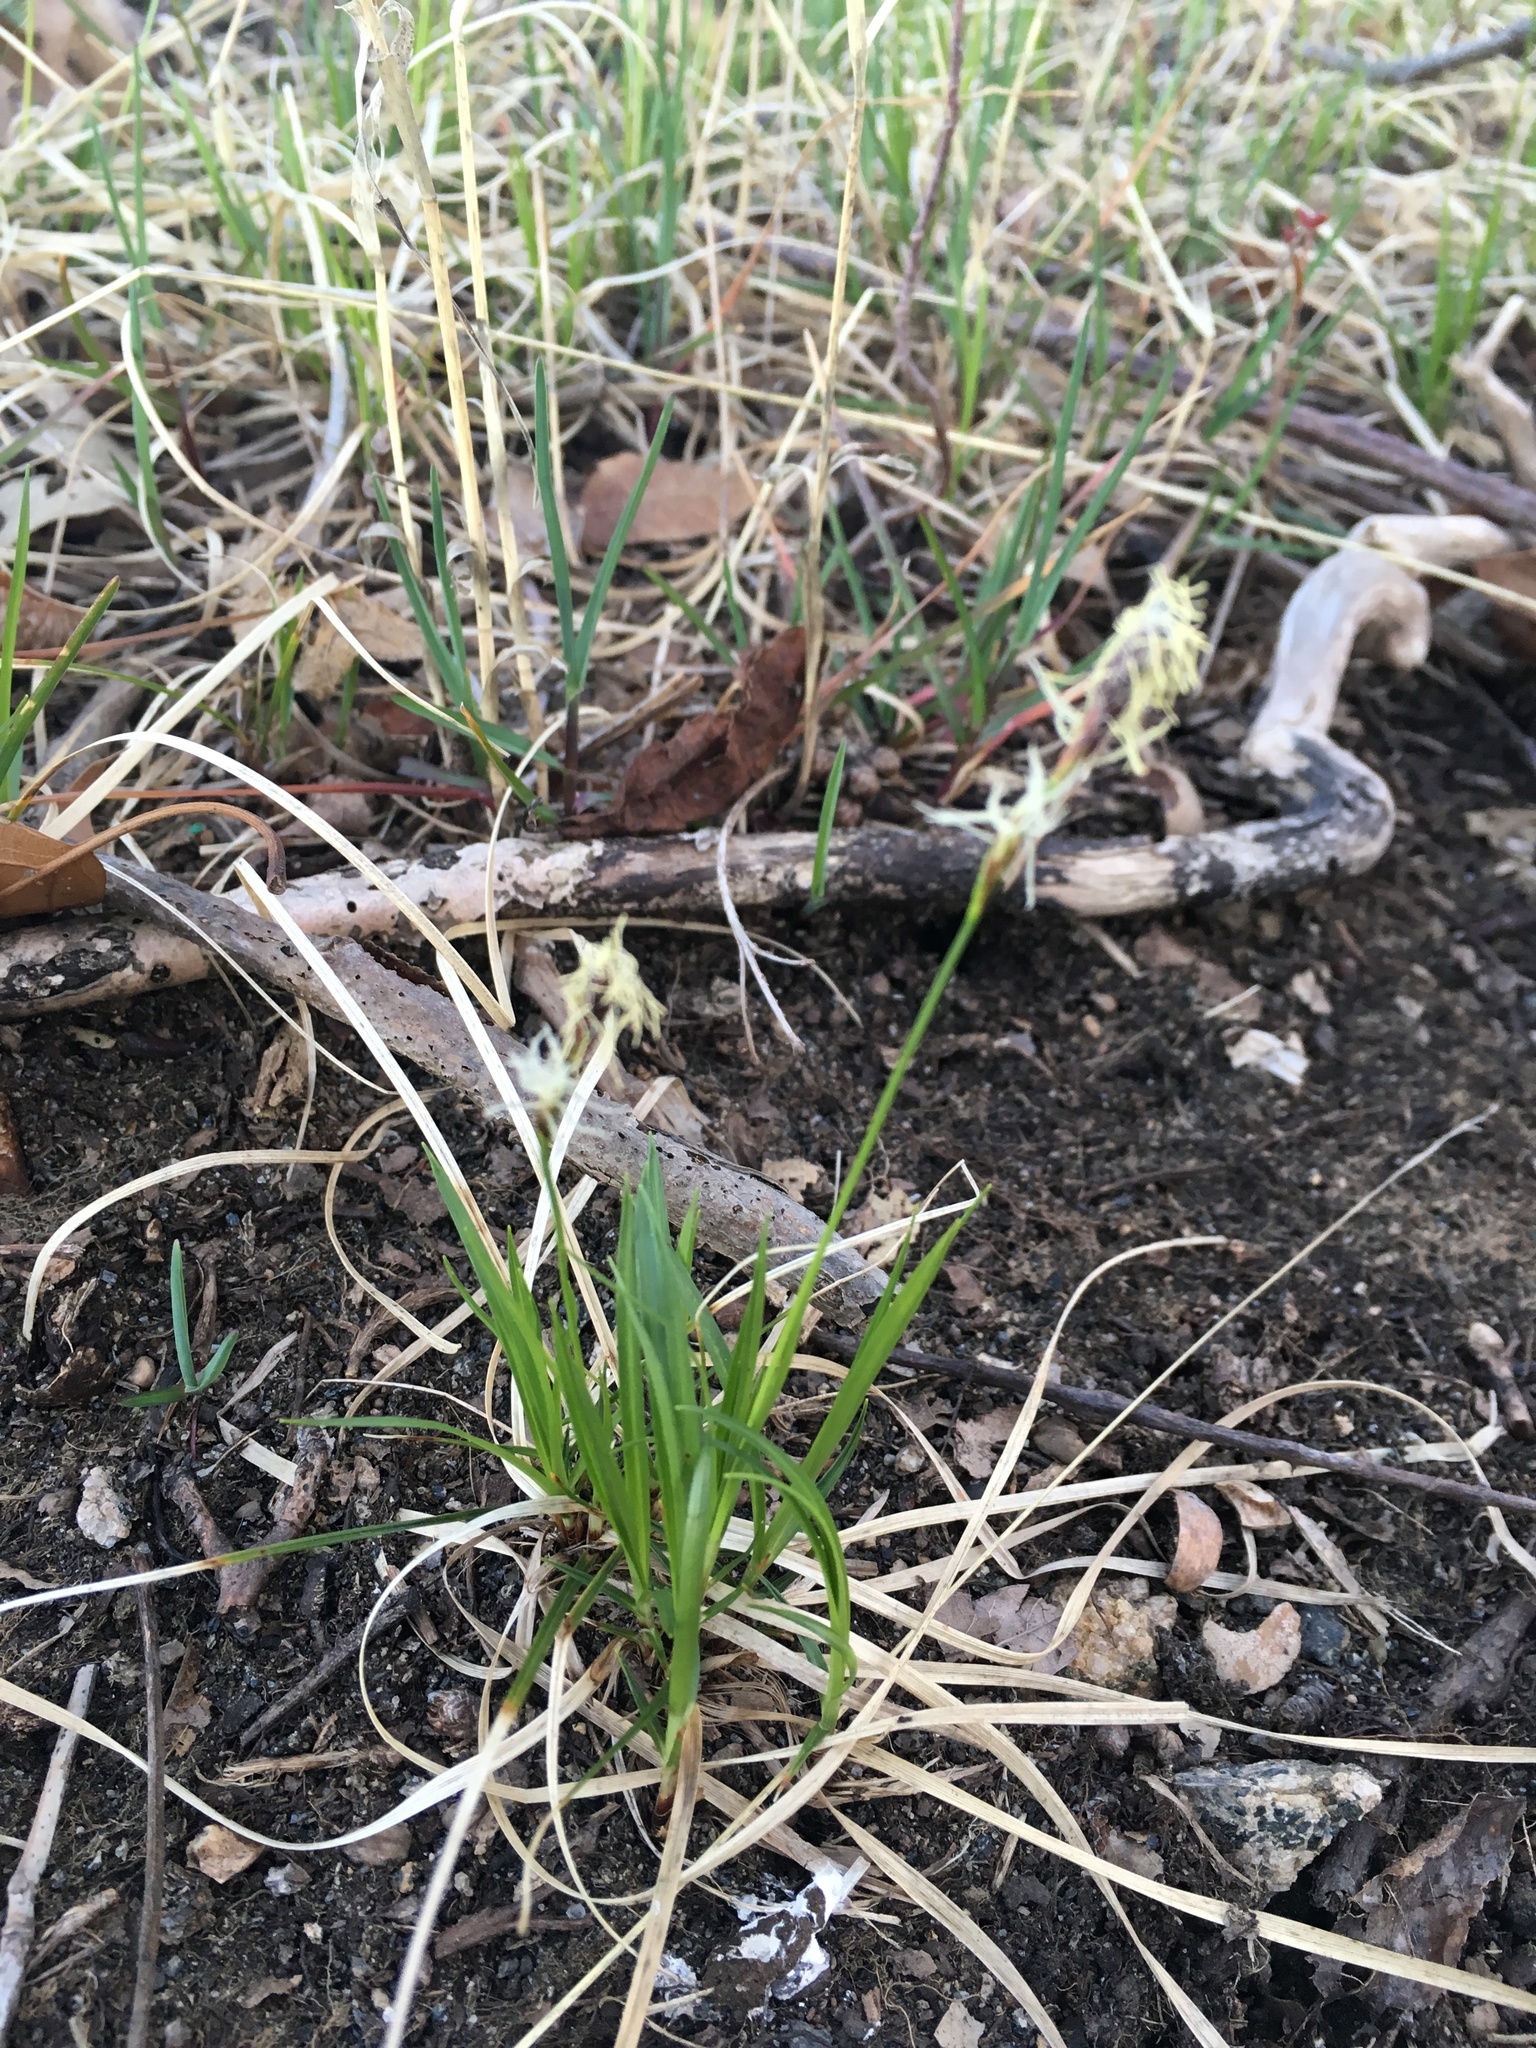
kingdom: Plantae
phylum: Tracheophyta
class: Liliopsida
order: Poales
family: Cyperaceae
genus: Carex
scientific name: Carex pensylvanica
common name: Common oak sedge
